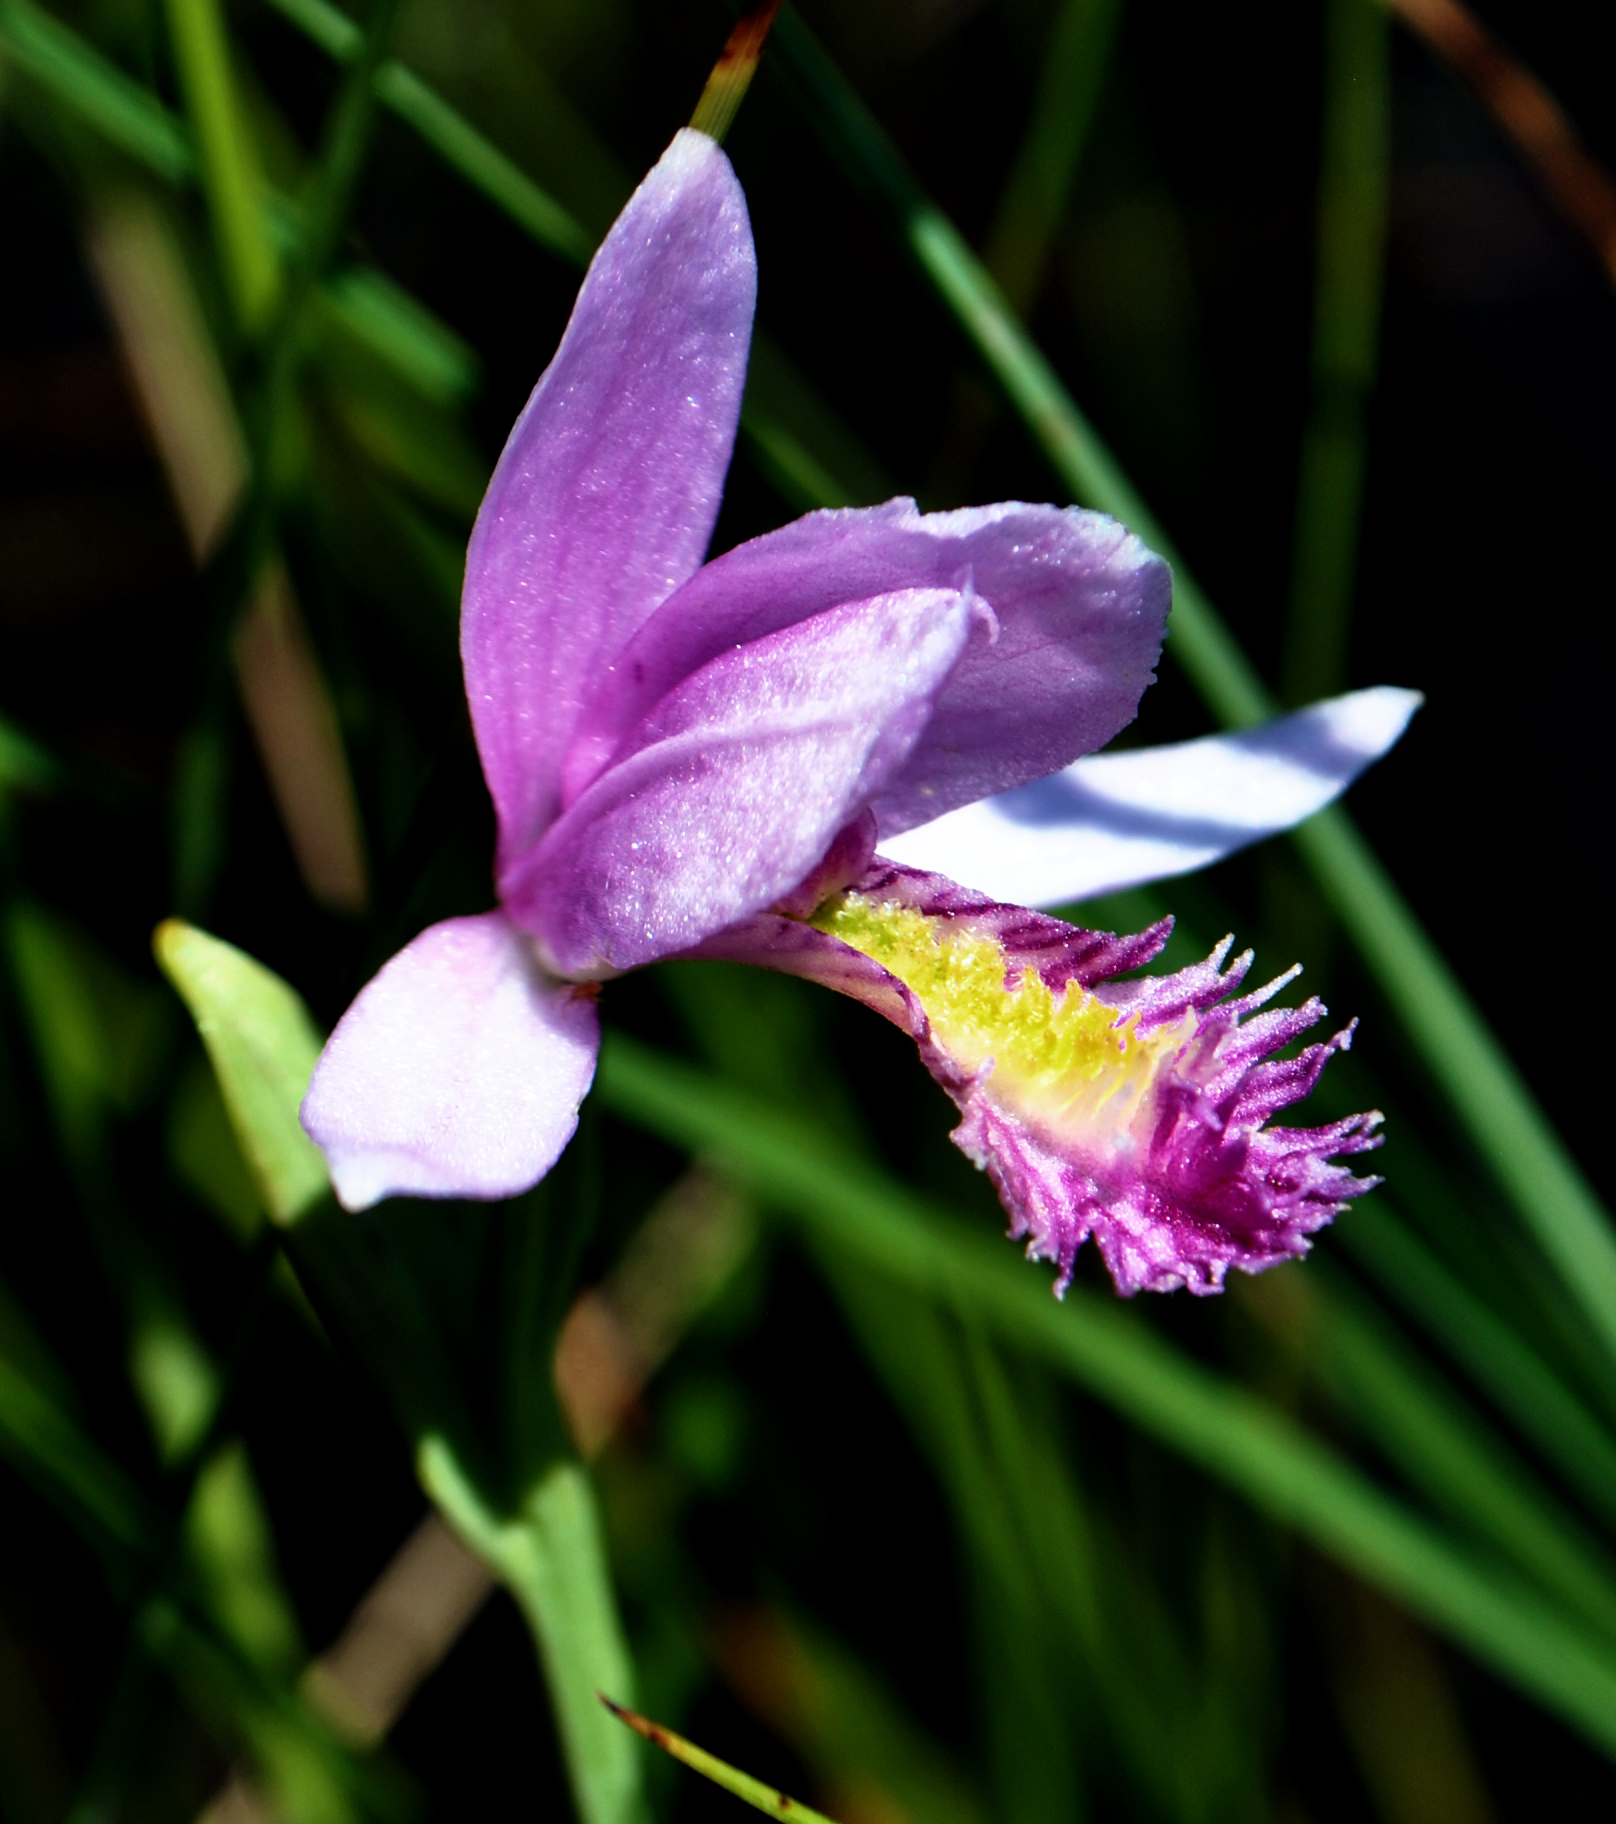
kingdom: Plantae
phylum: Tracheophyta
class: Liliopsida
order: Asparagales
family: Orchidaceae
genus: Pogonia
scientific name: Pogonia ophioglossoides
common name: Rose pogonia
